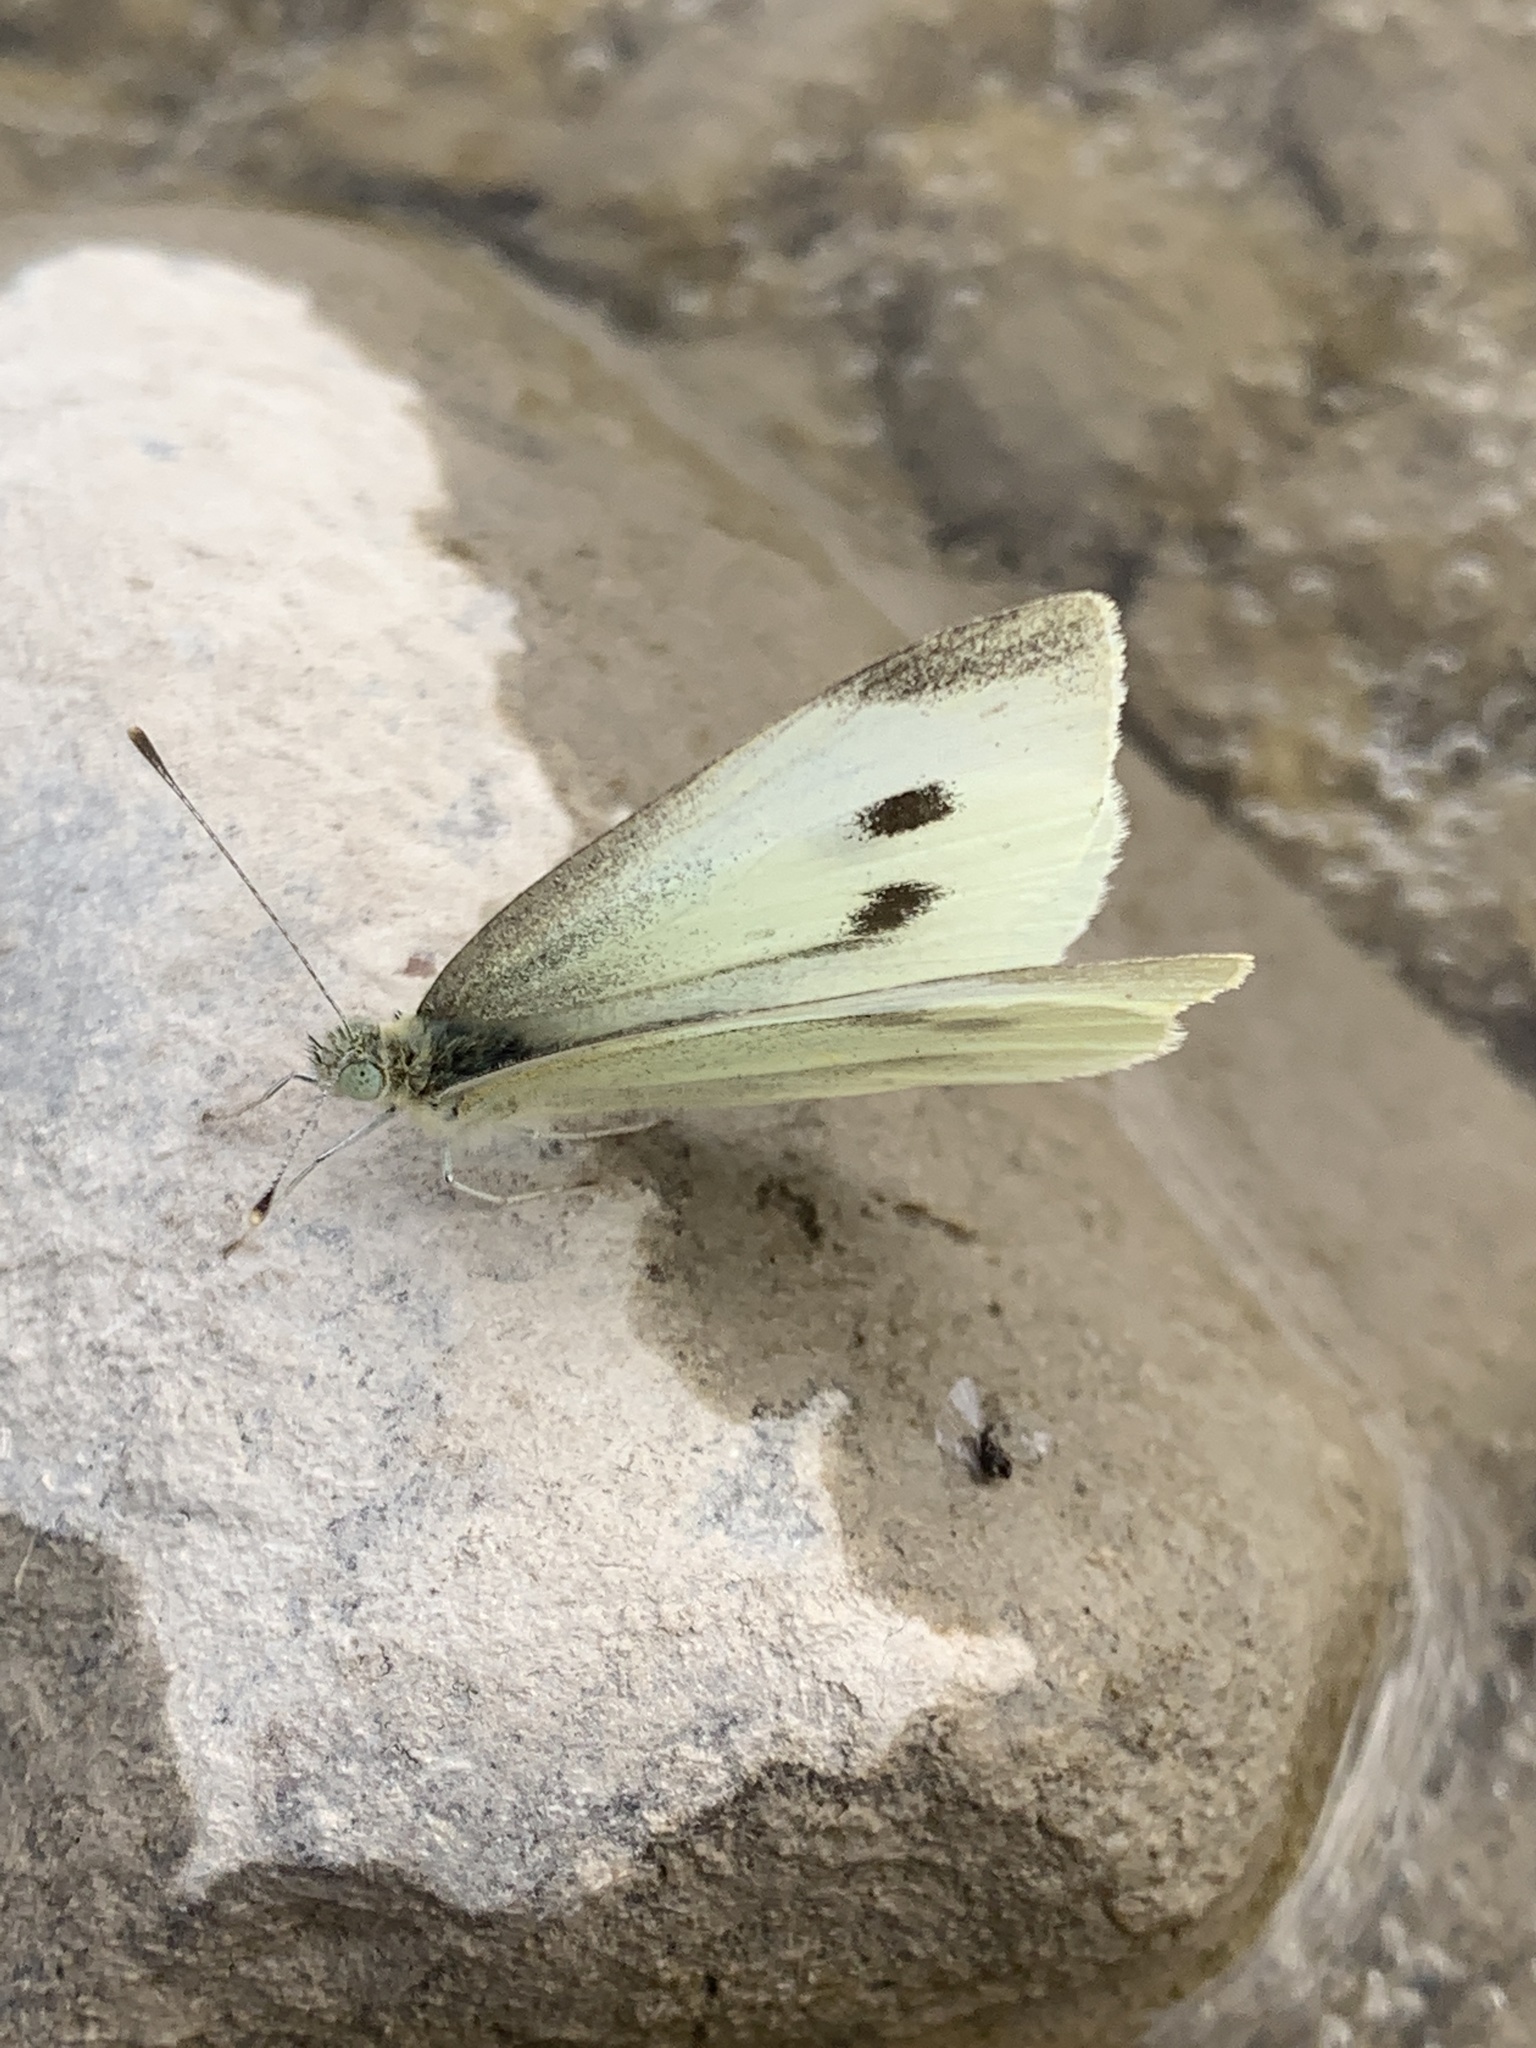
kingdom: Animalia
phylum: Arthropoda
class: Insecta
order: Lepidoptera
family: Pieridae
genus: Pieris
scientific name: Pieris rapae
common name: Small white
